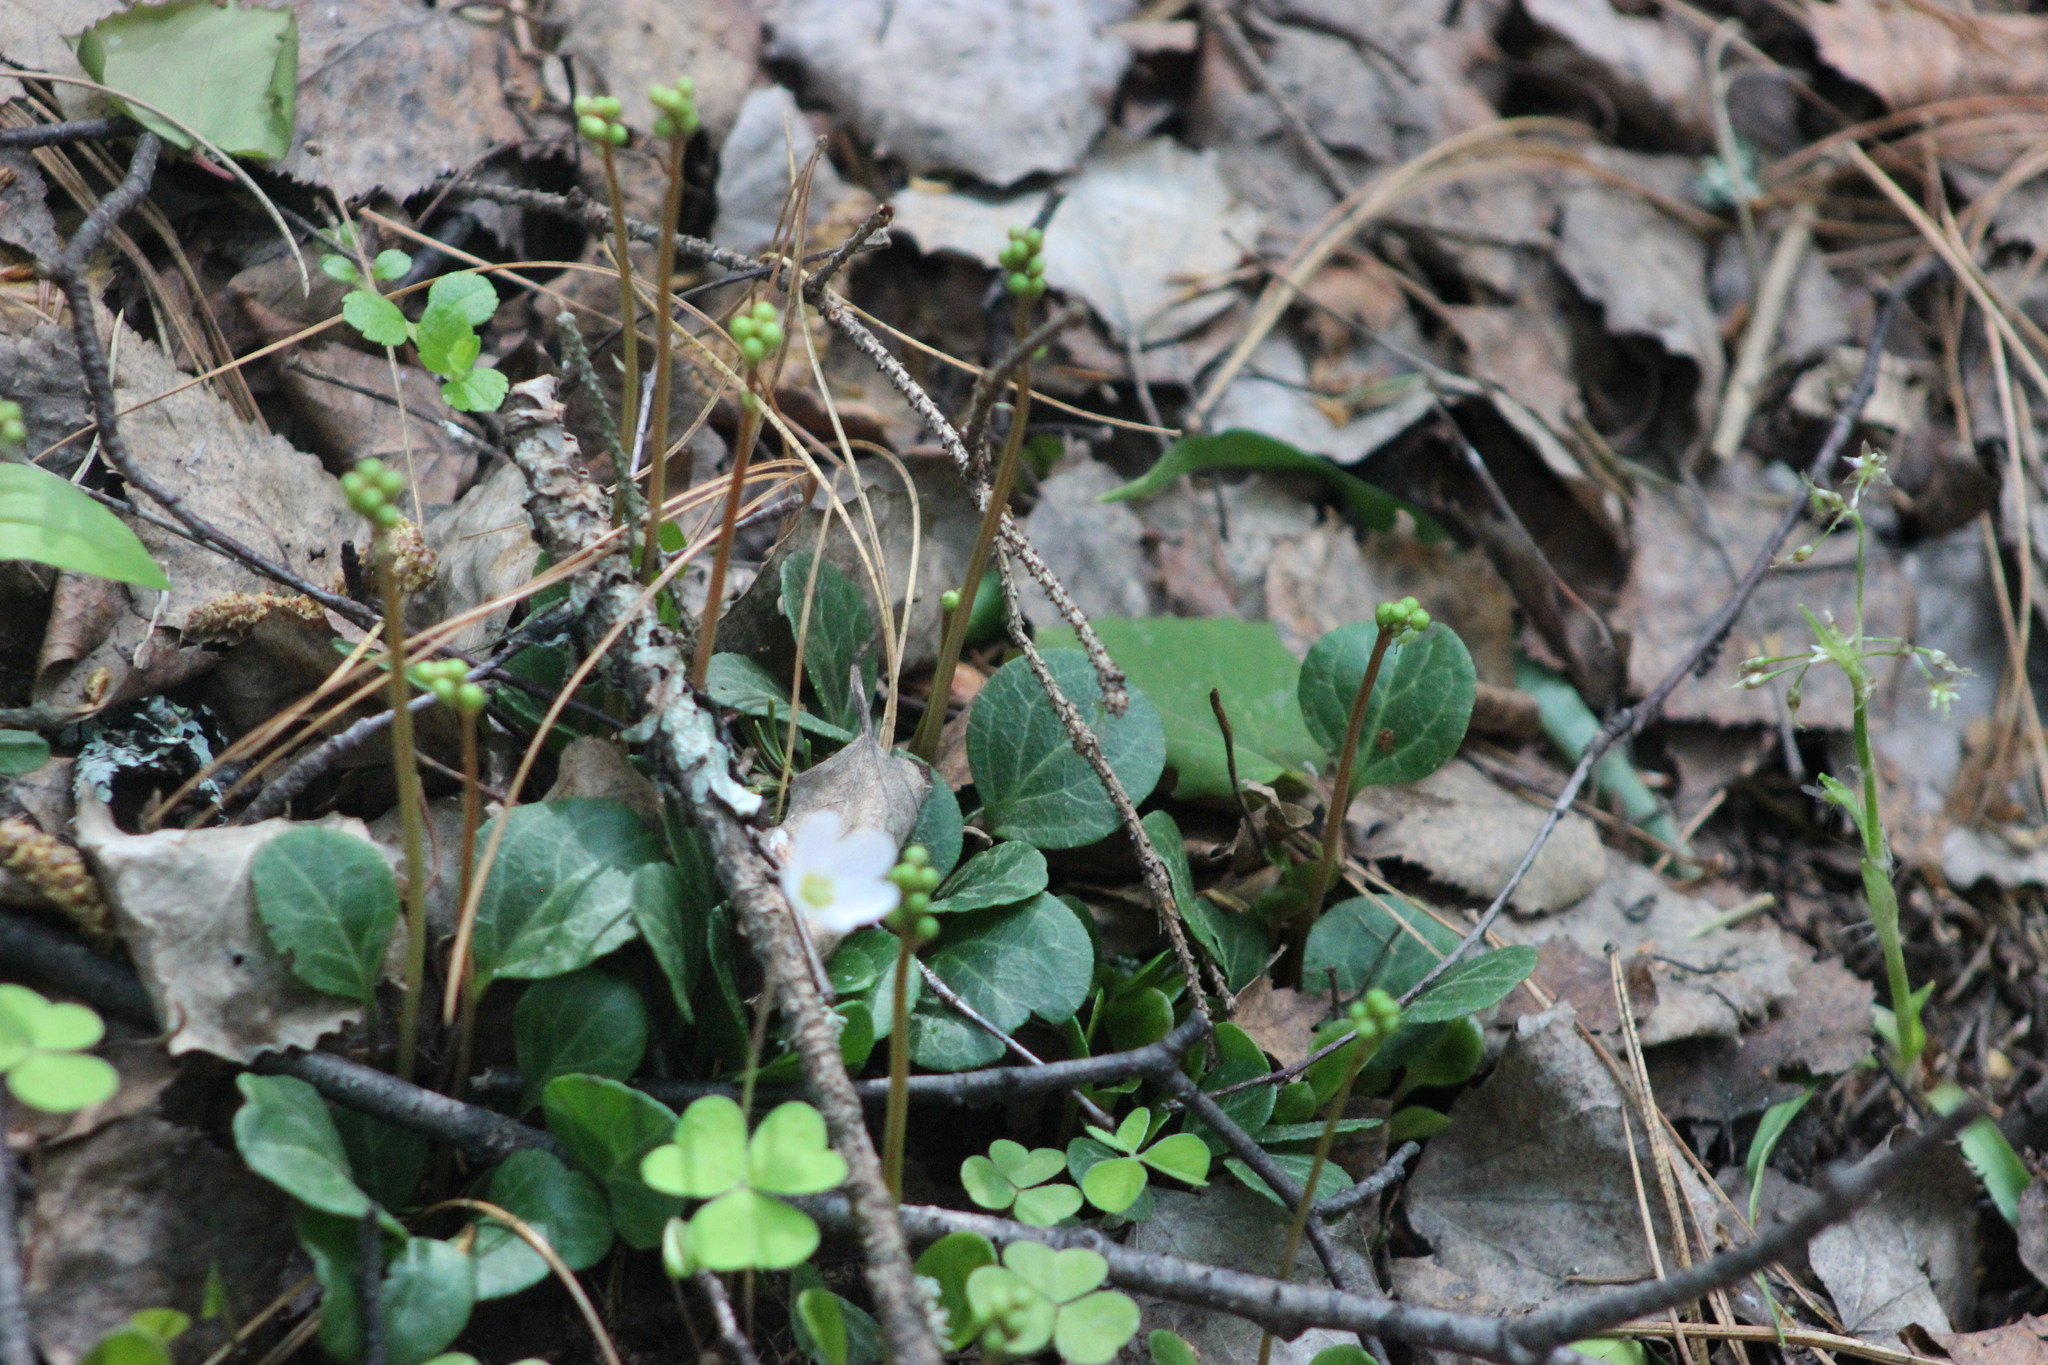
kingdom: Plantae
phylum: Tracheophyta
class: Magnoliopsida
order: Ericales
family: Ericaceae
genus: Pyrola
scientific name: Pyrola chlorantha
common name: Green wintergreen
